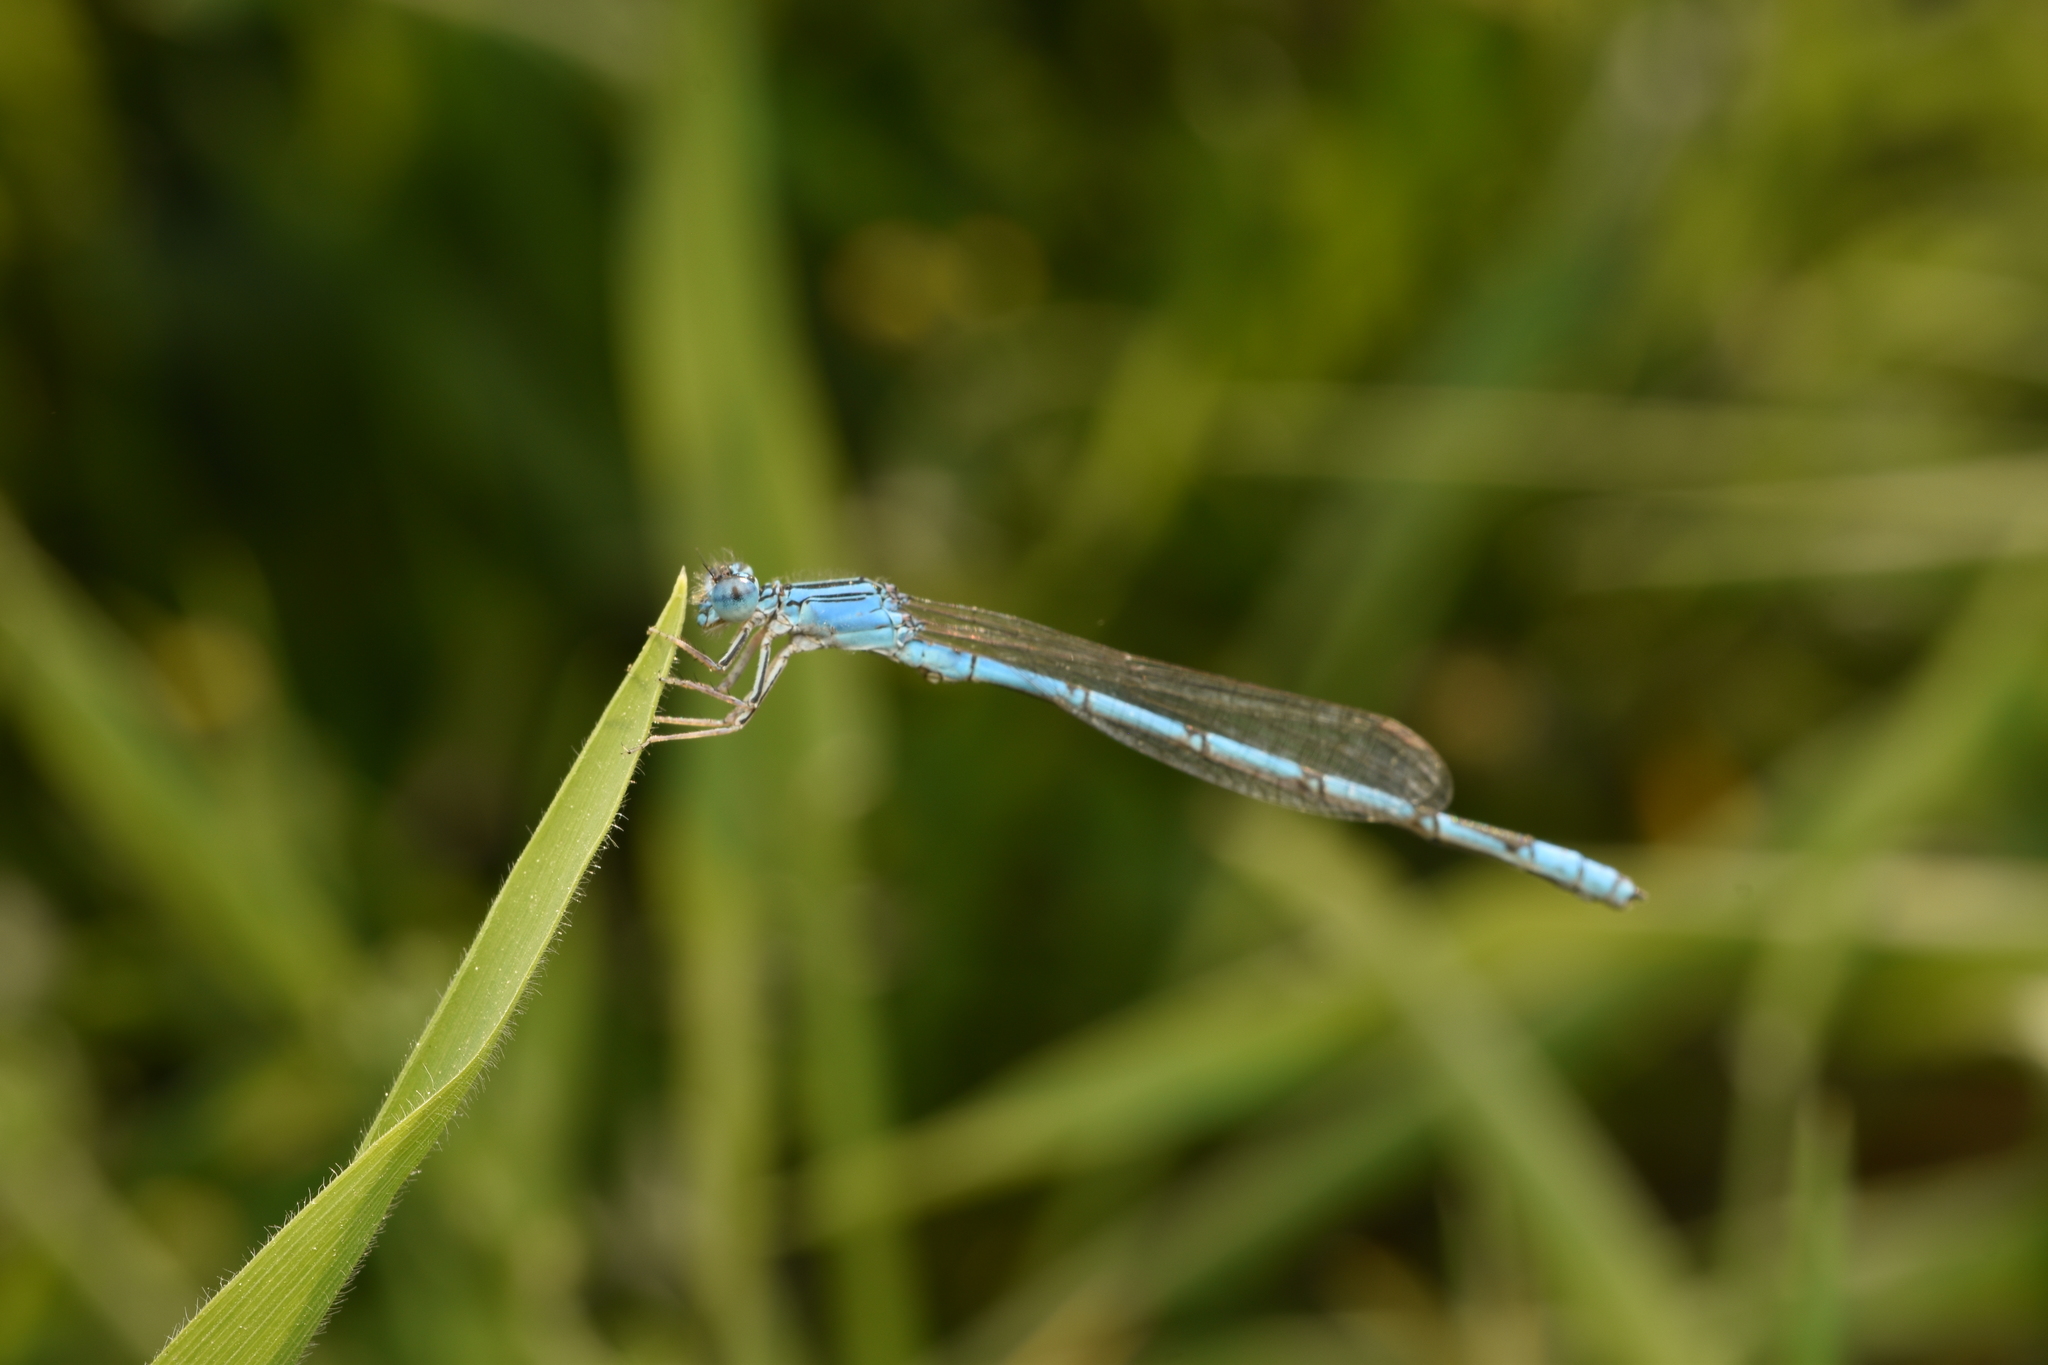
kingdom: Animalia
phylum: Arthropoda
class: Insecta
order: Odonata
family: Coenagrionidae
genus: Enallagma
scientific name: Enallagma basidens
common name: Double-striped bluet
